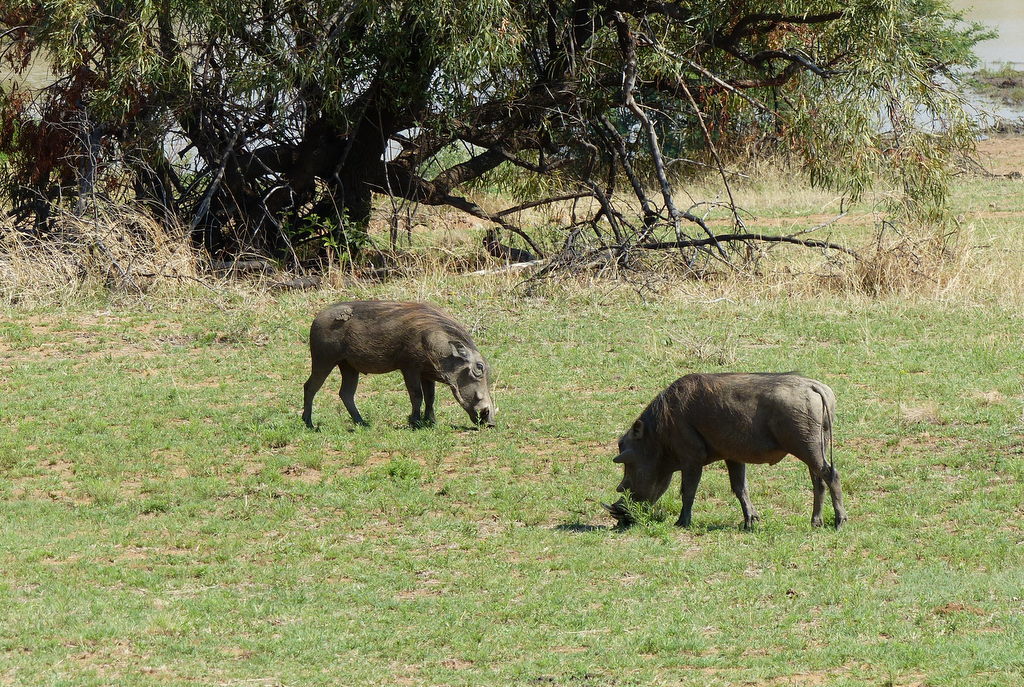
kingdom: Animalia
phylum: Chordata
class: Mammalia
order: Artiodactyla
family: Suidae
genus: Phacochoerus
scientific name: Phacochoerus africanus
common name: Common warthog
